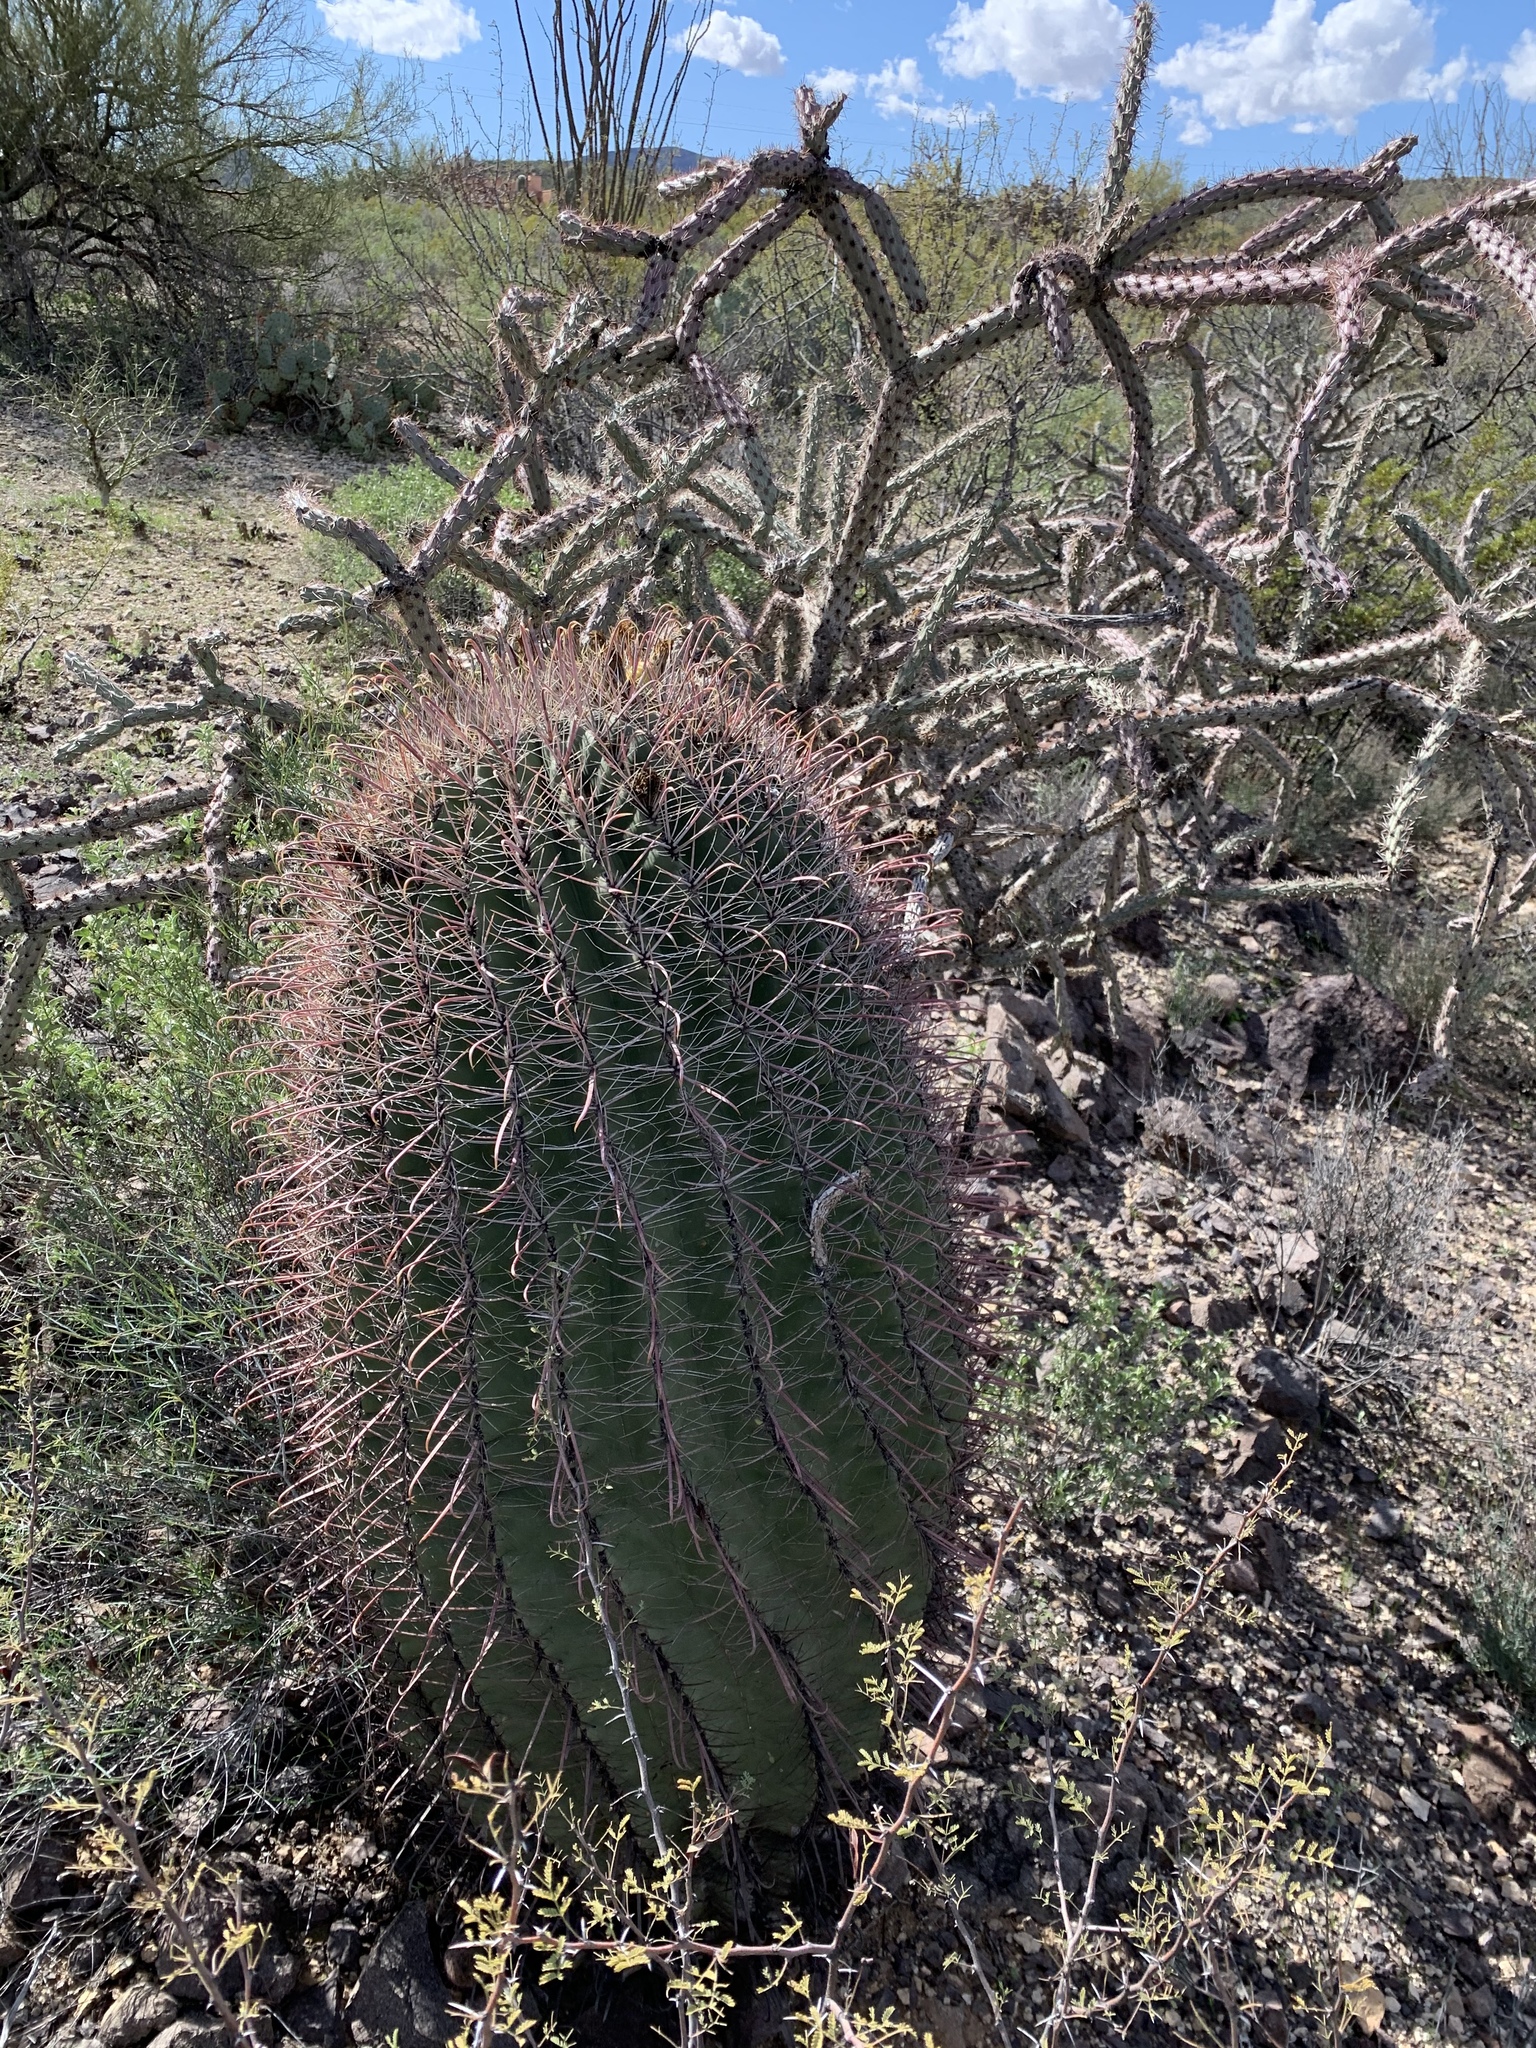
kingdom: Plantae
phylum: Tracheophyta
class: Magnoliopsida
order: Caryophyllales
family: Cactaceae
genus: Ferocactus
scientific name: Ferocactus wislizeni
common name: Candy barrel cactus
